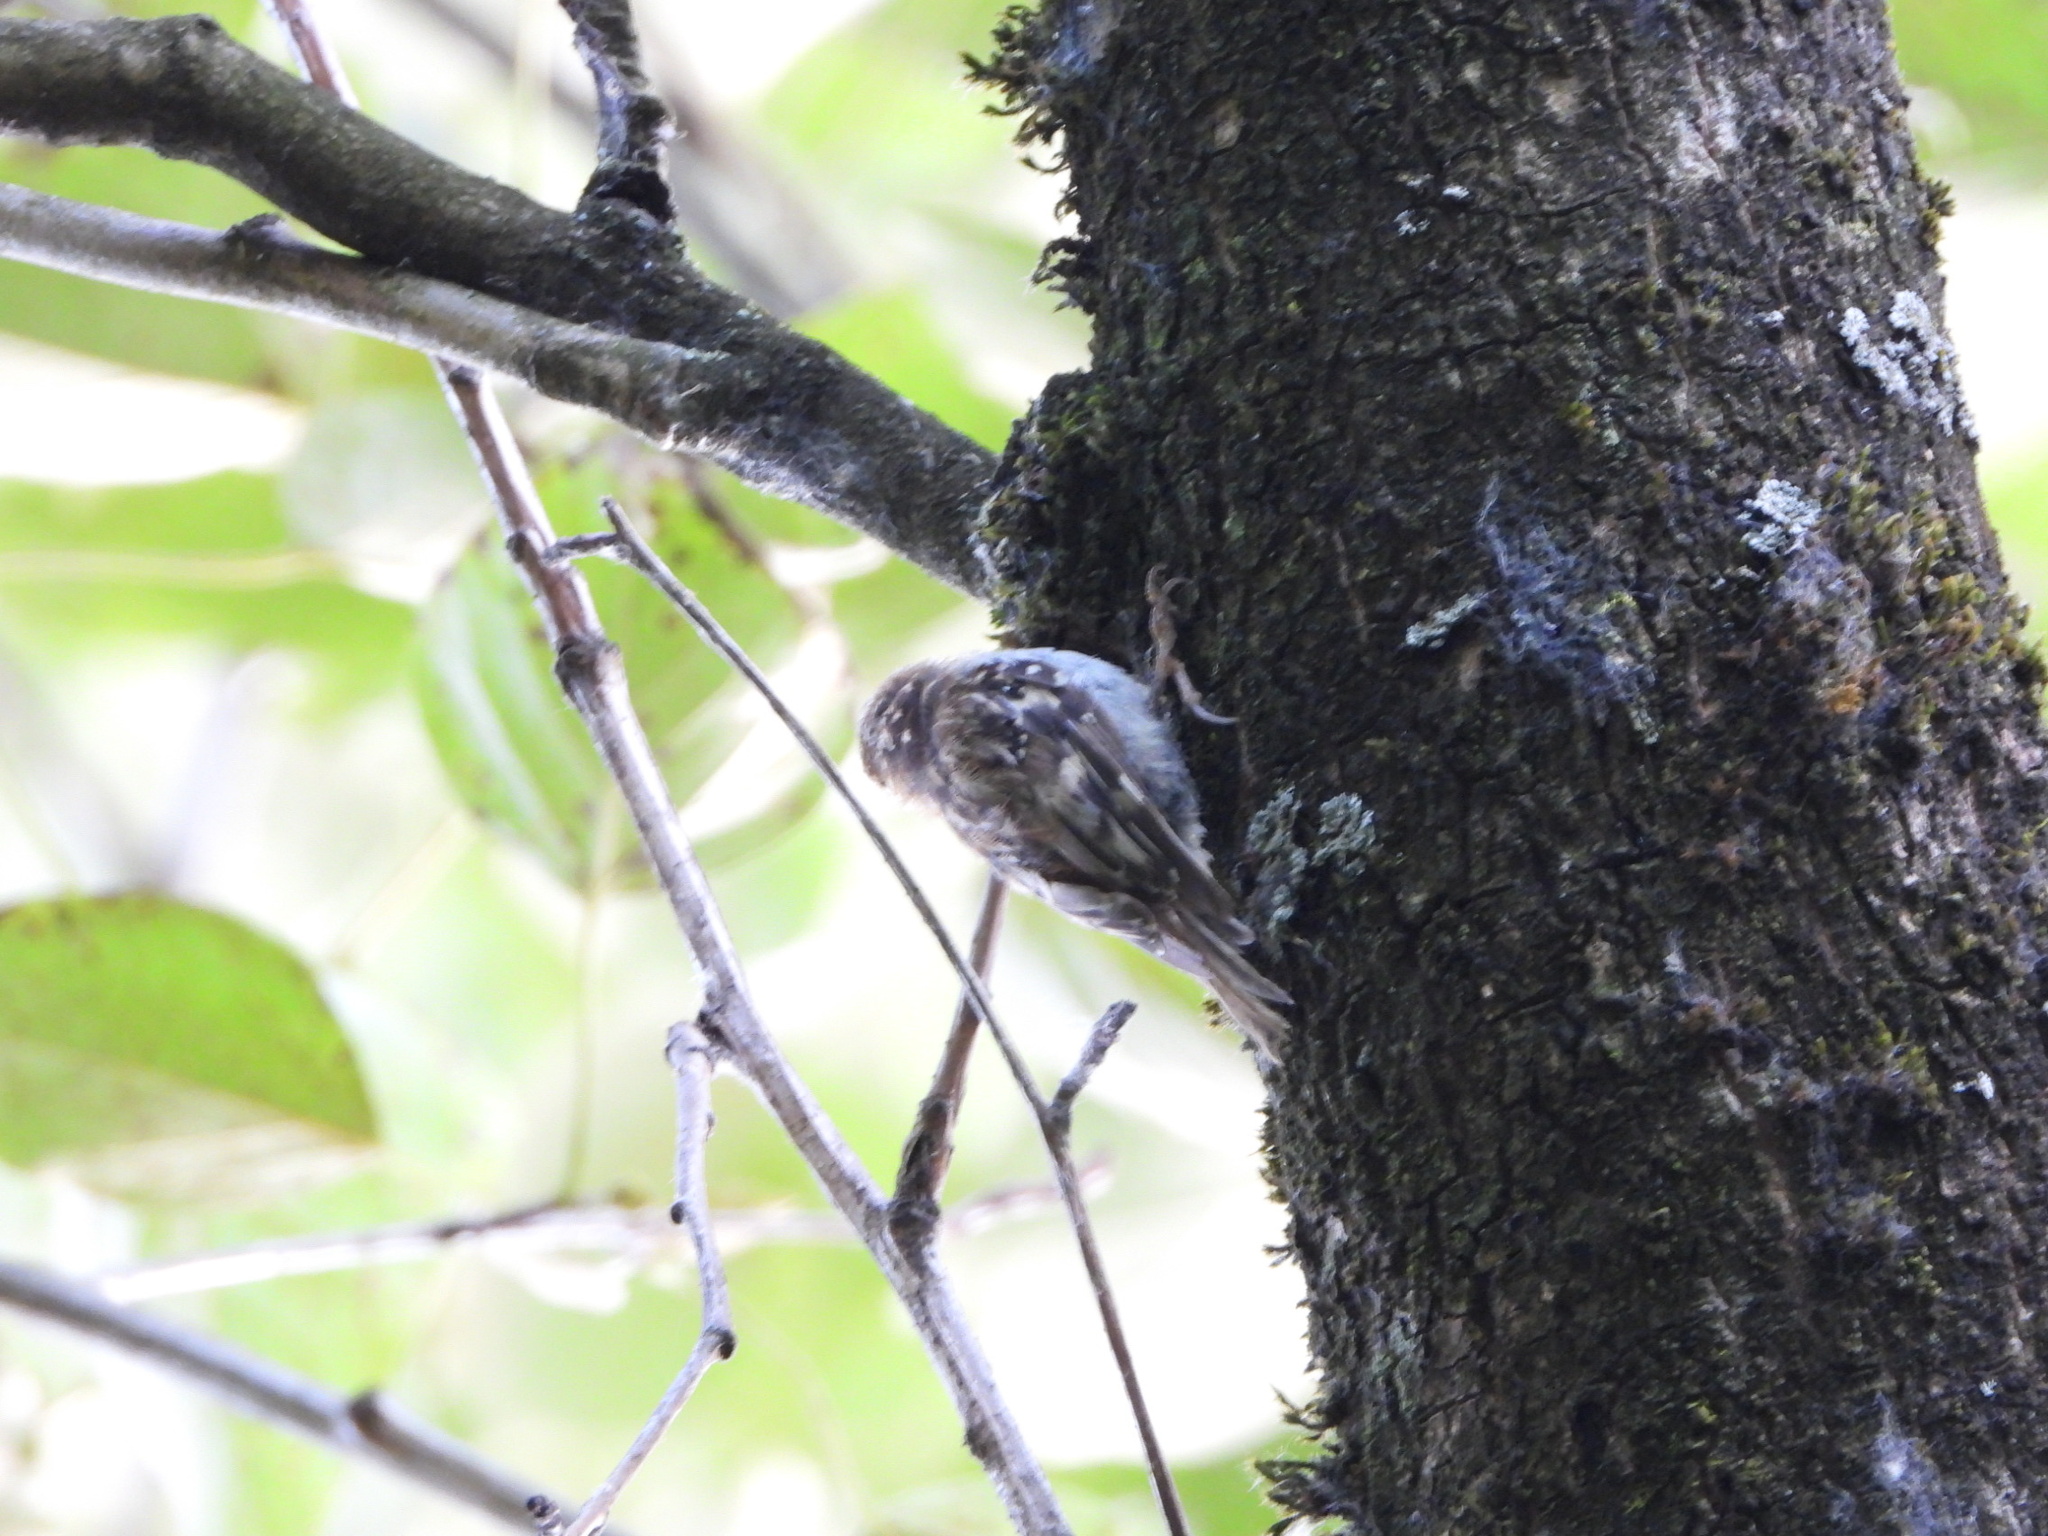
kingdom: Animalia
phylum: Chordata
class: Aves
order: Passeriformes
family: Certhiidae
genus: Certhia
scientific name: Certhia americana
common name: Brown creeper
